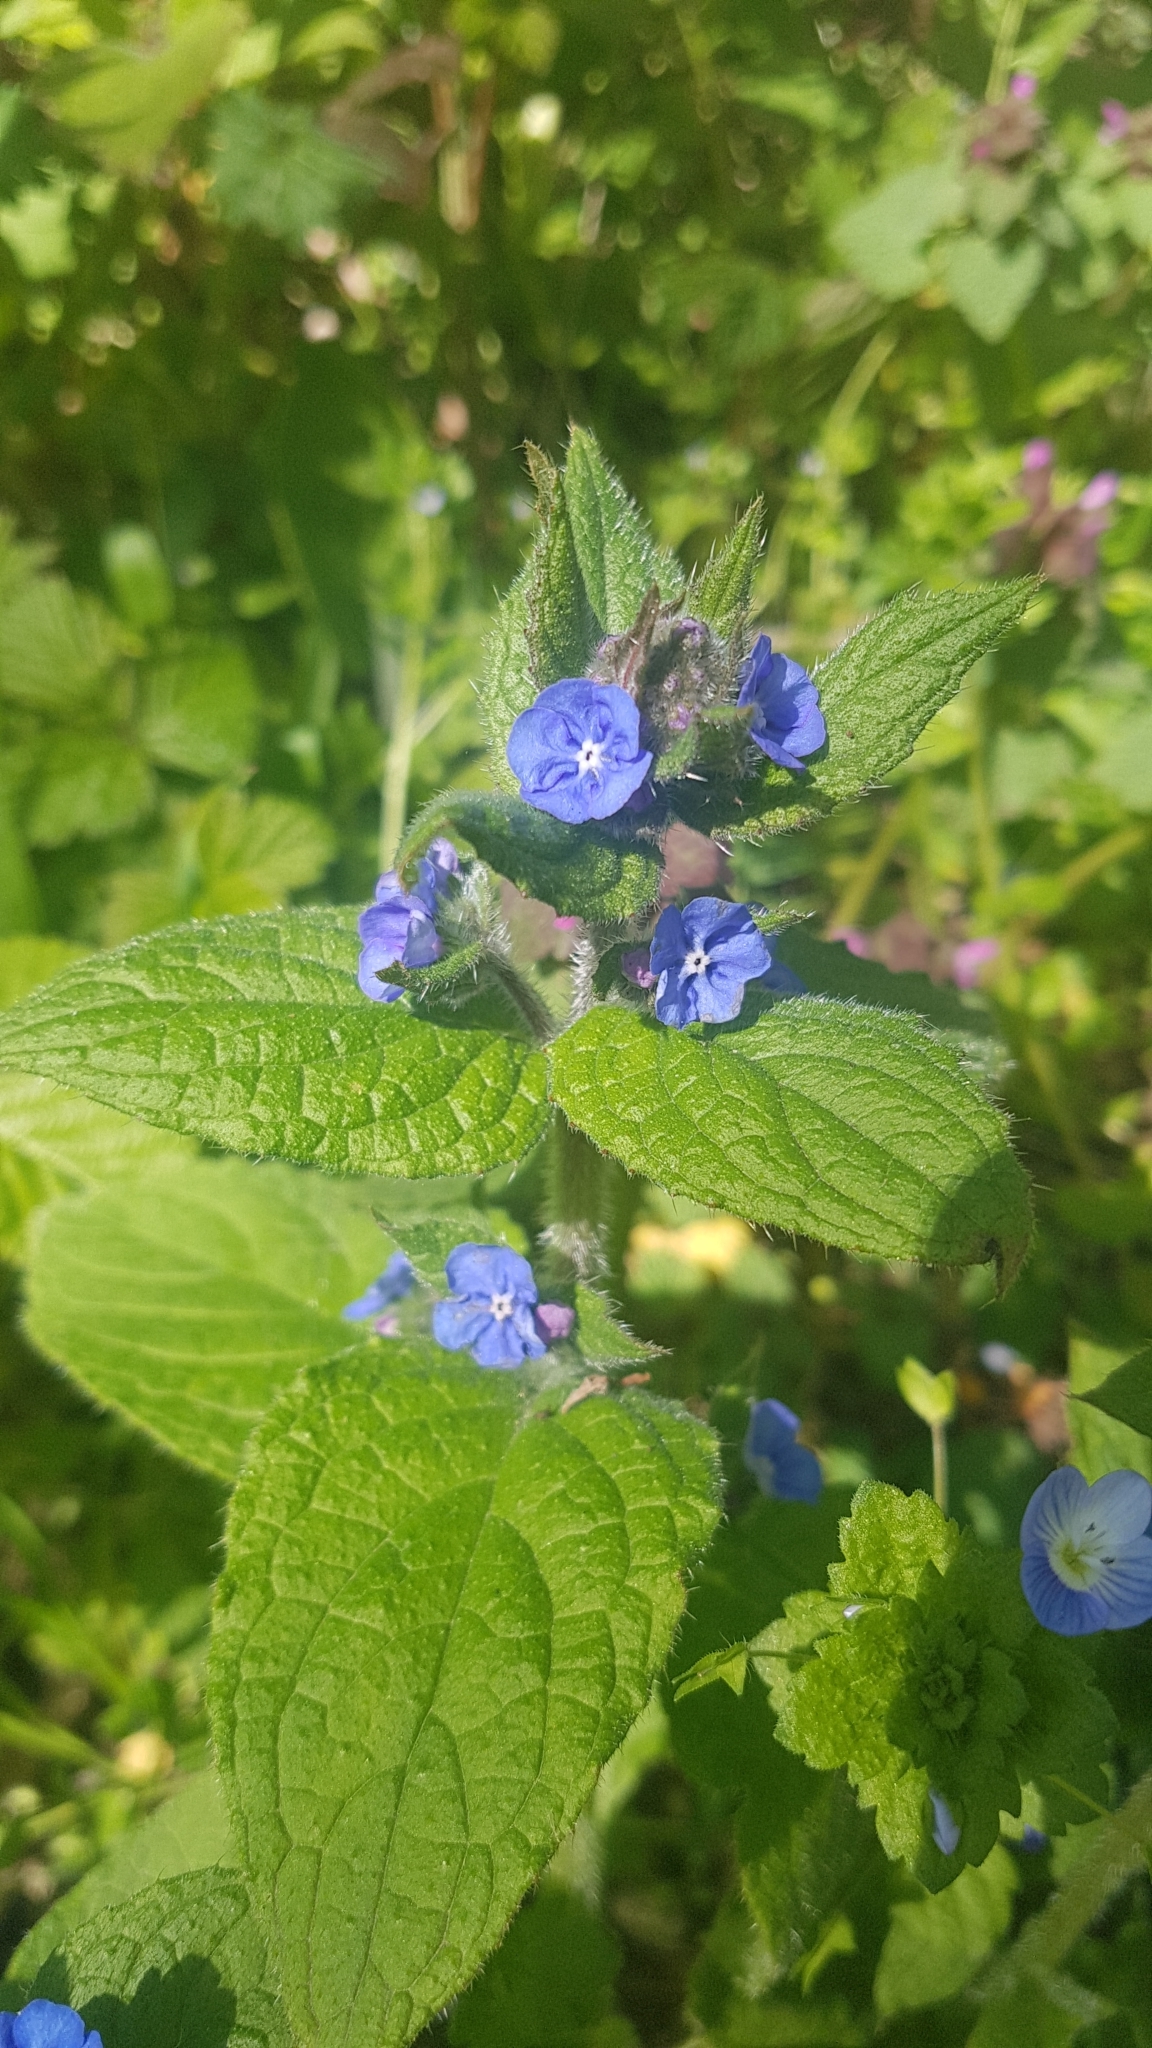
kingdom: Plantae
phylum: Tracheophyta
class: Magnoliopsida
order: Boraginales
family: Boraginaceae
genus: Pentaglottis
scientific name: Pentaglottis sempervirens
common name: Green alkanet
